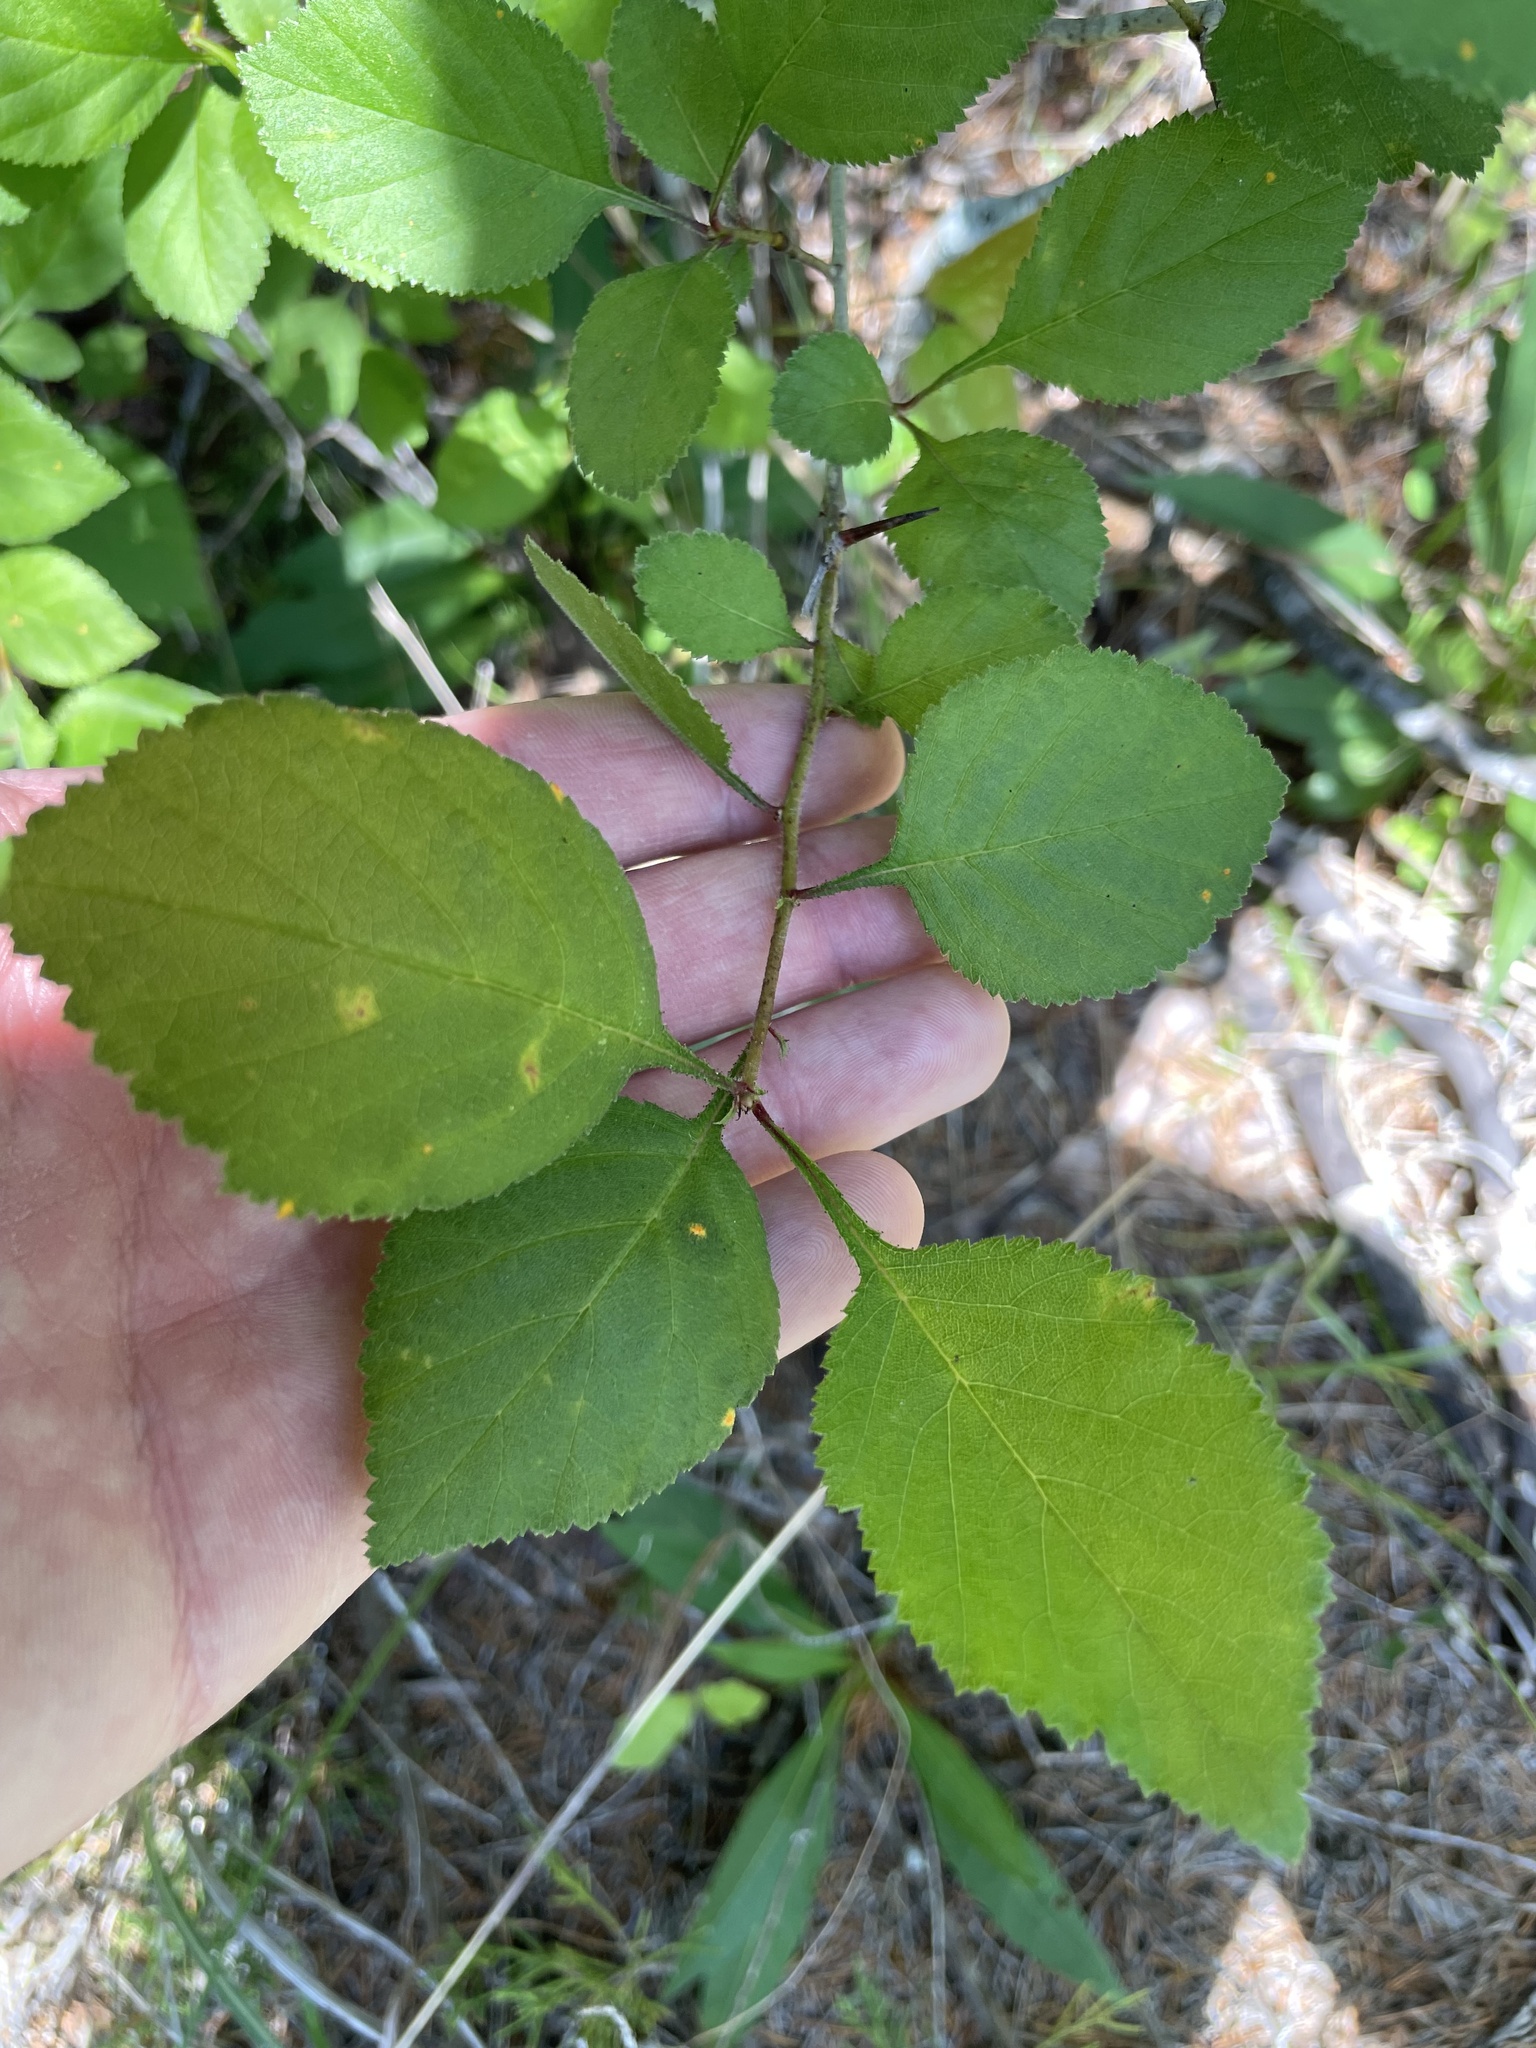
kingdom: Plantae
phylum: Tracheophyta
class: Magnoliopsida
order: Rosales
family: Rosaceae
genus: Crataegus
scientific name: Crataegus ashei
